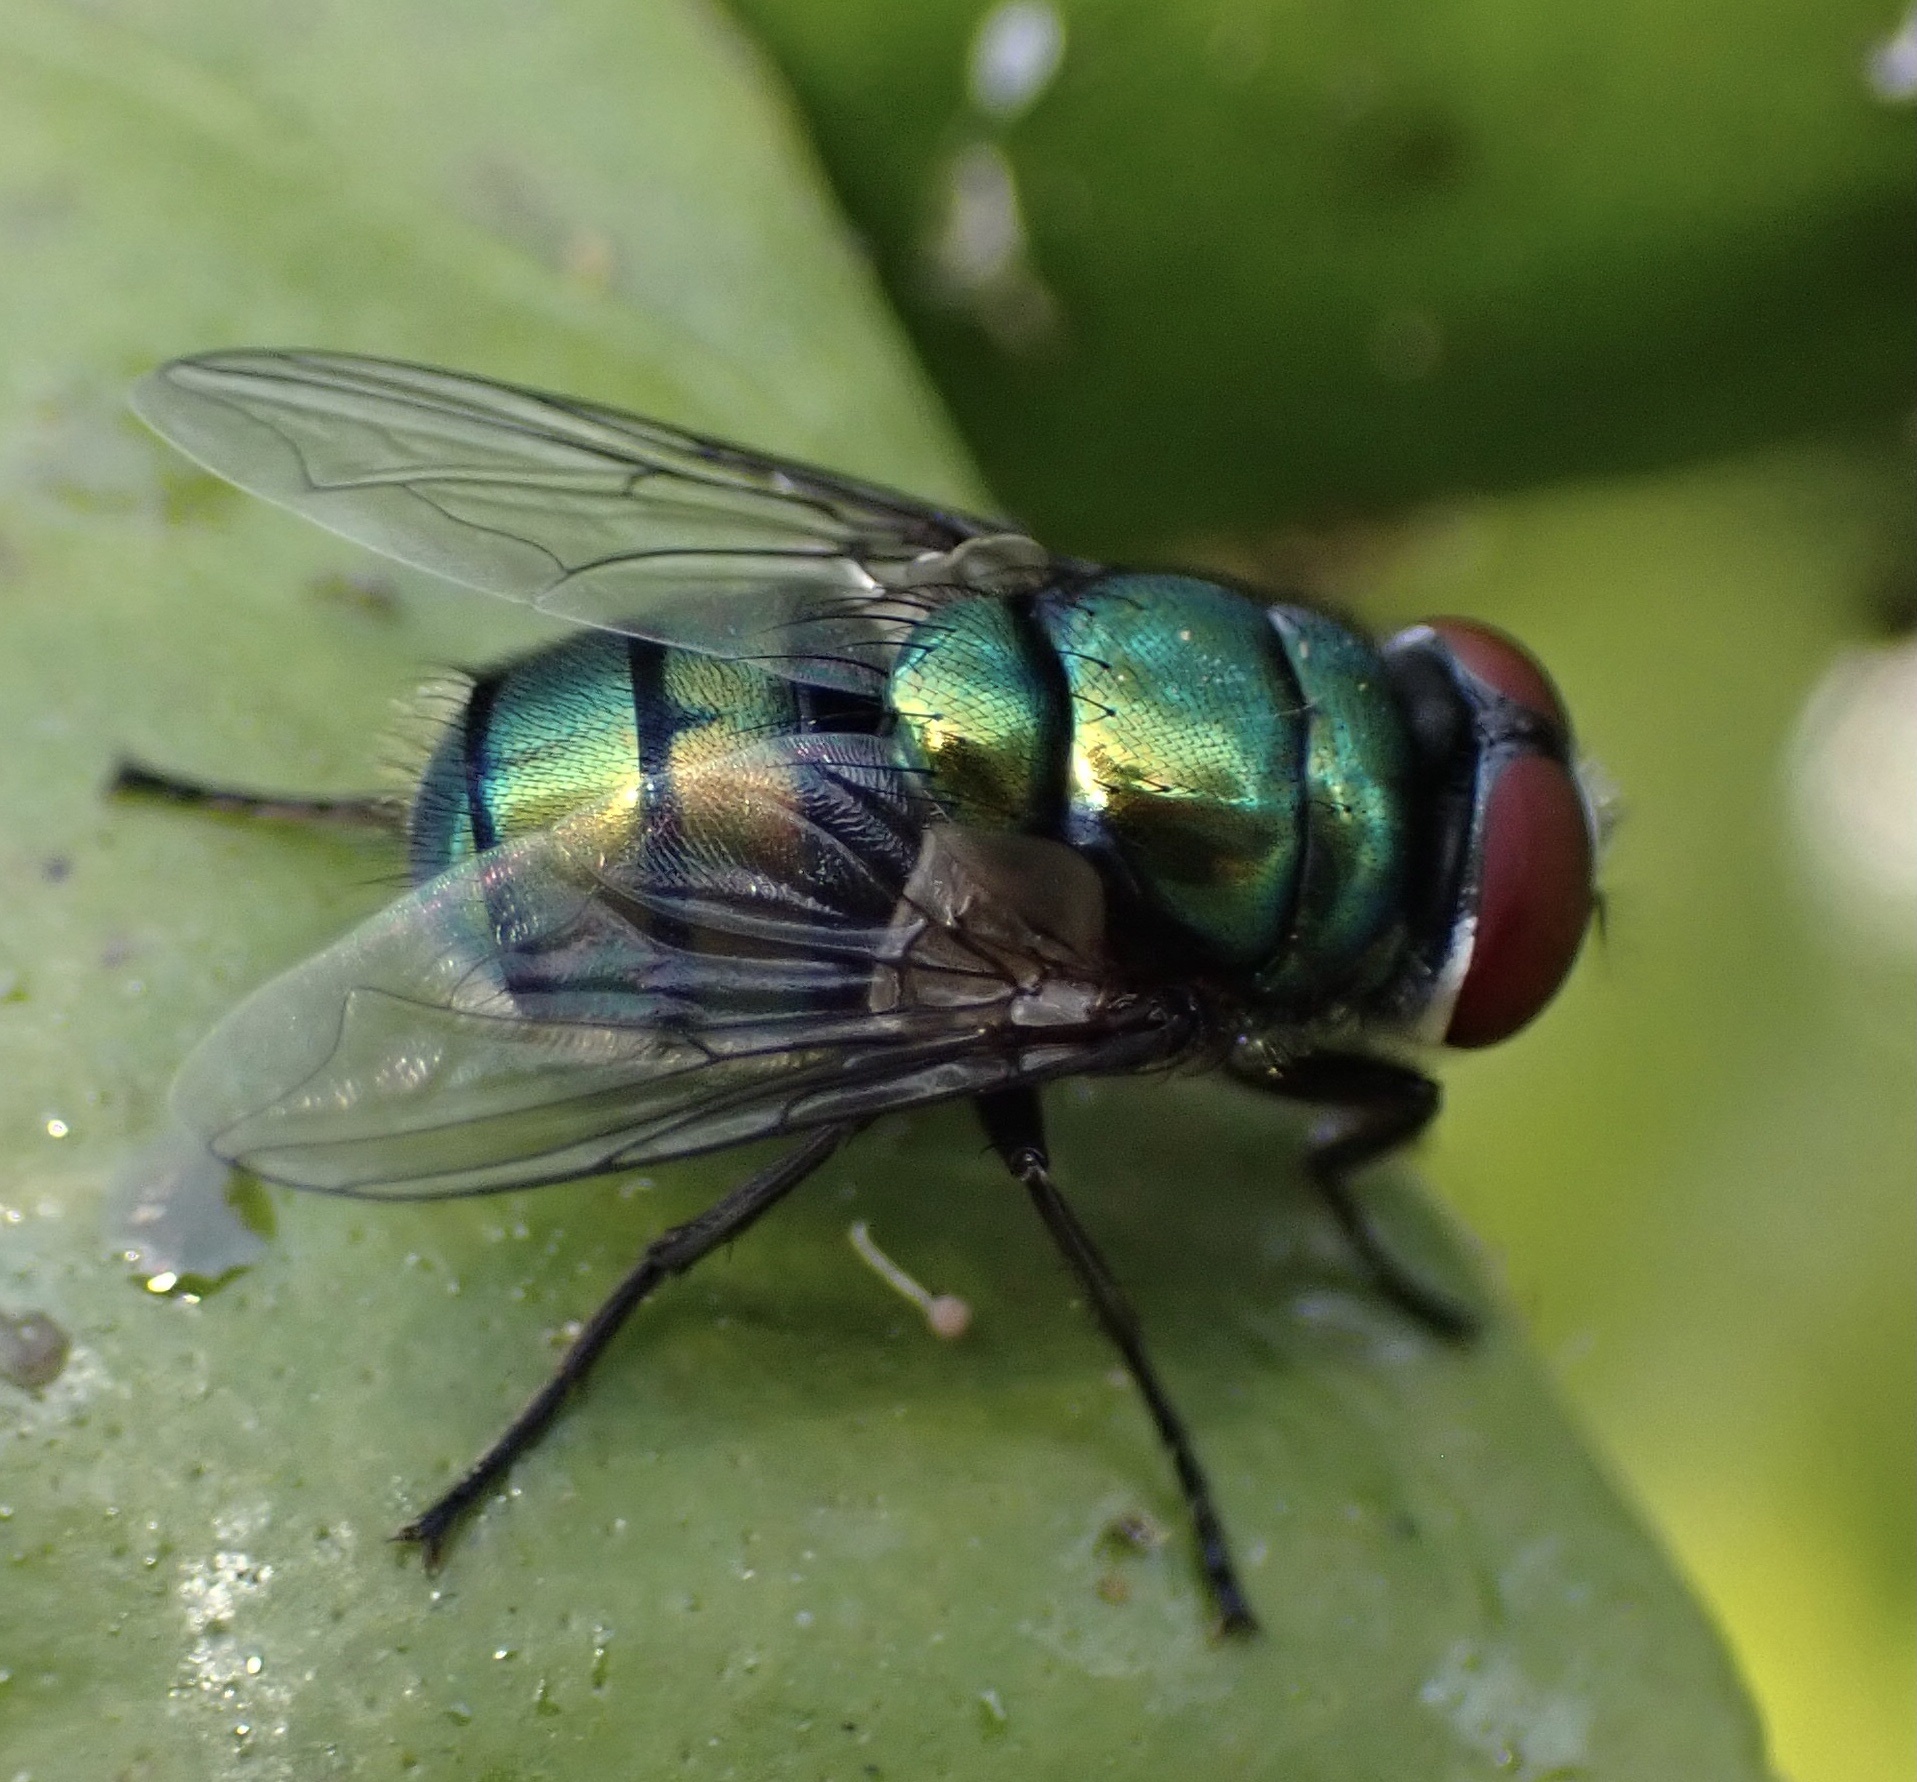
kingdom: Animalia
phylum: Arthropoda
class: Insecta
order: Diptera
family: Calliphoridae
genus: Chrysomya
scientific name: Chrysomya albiceps
